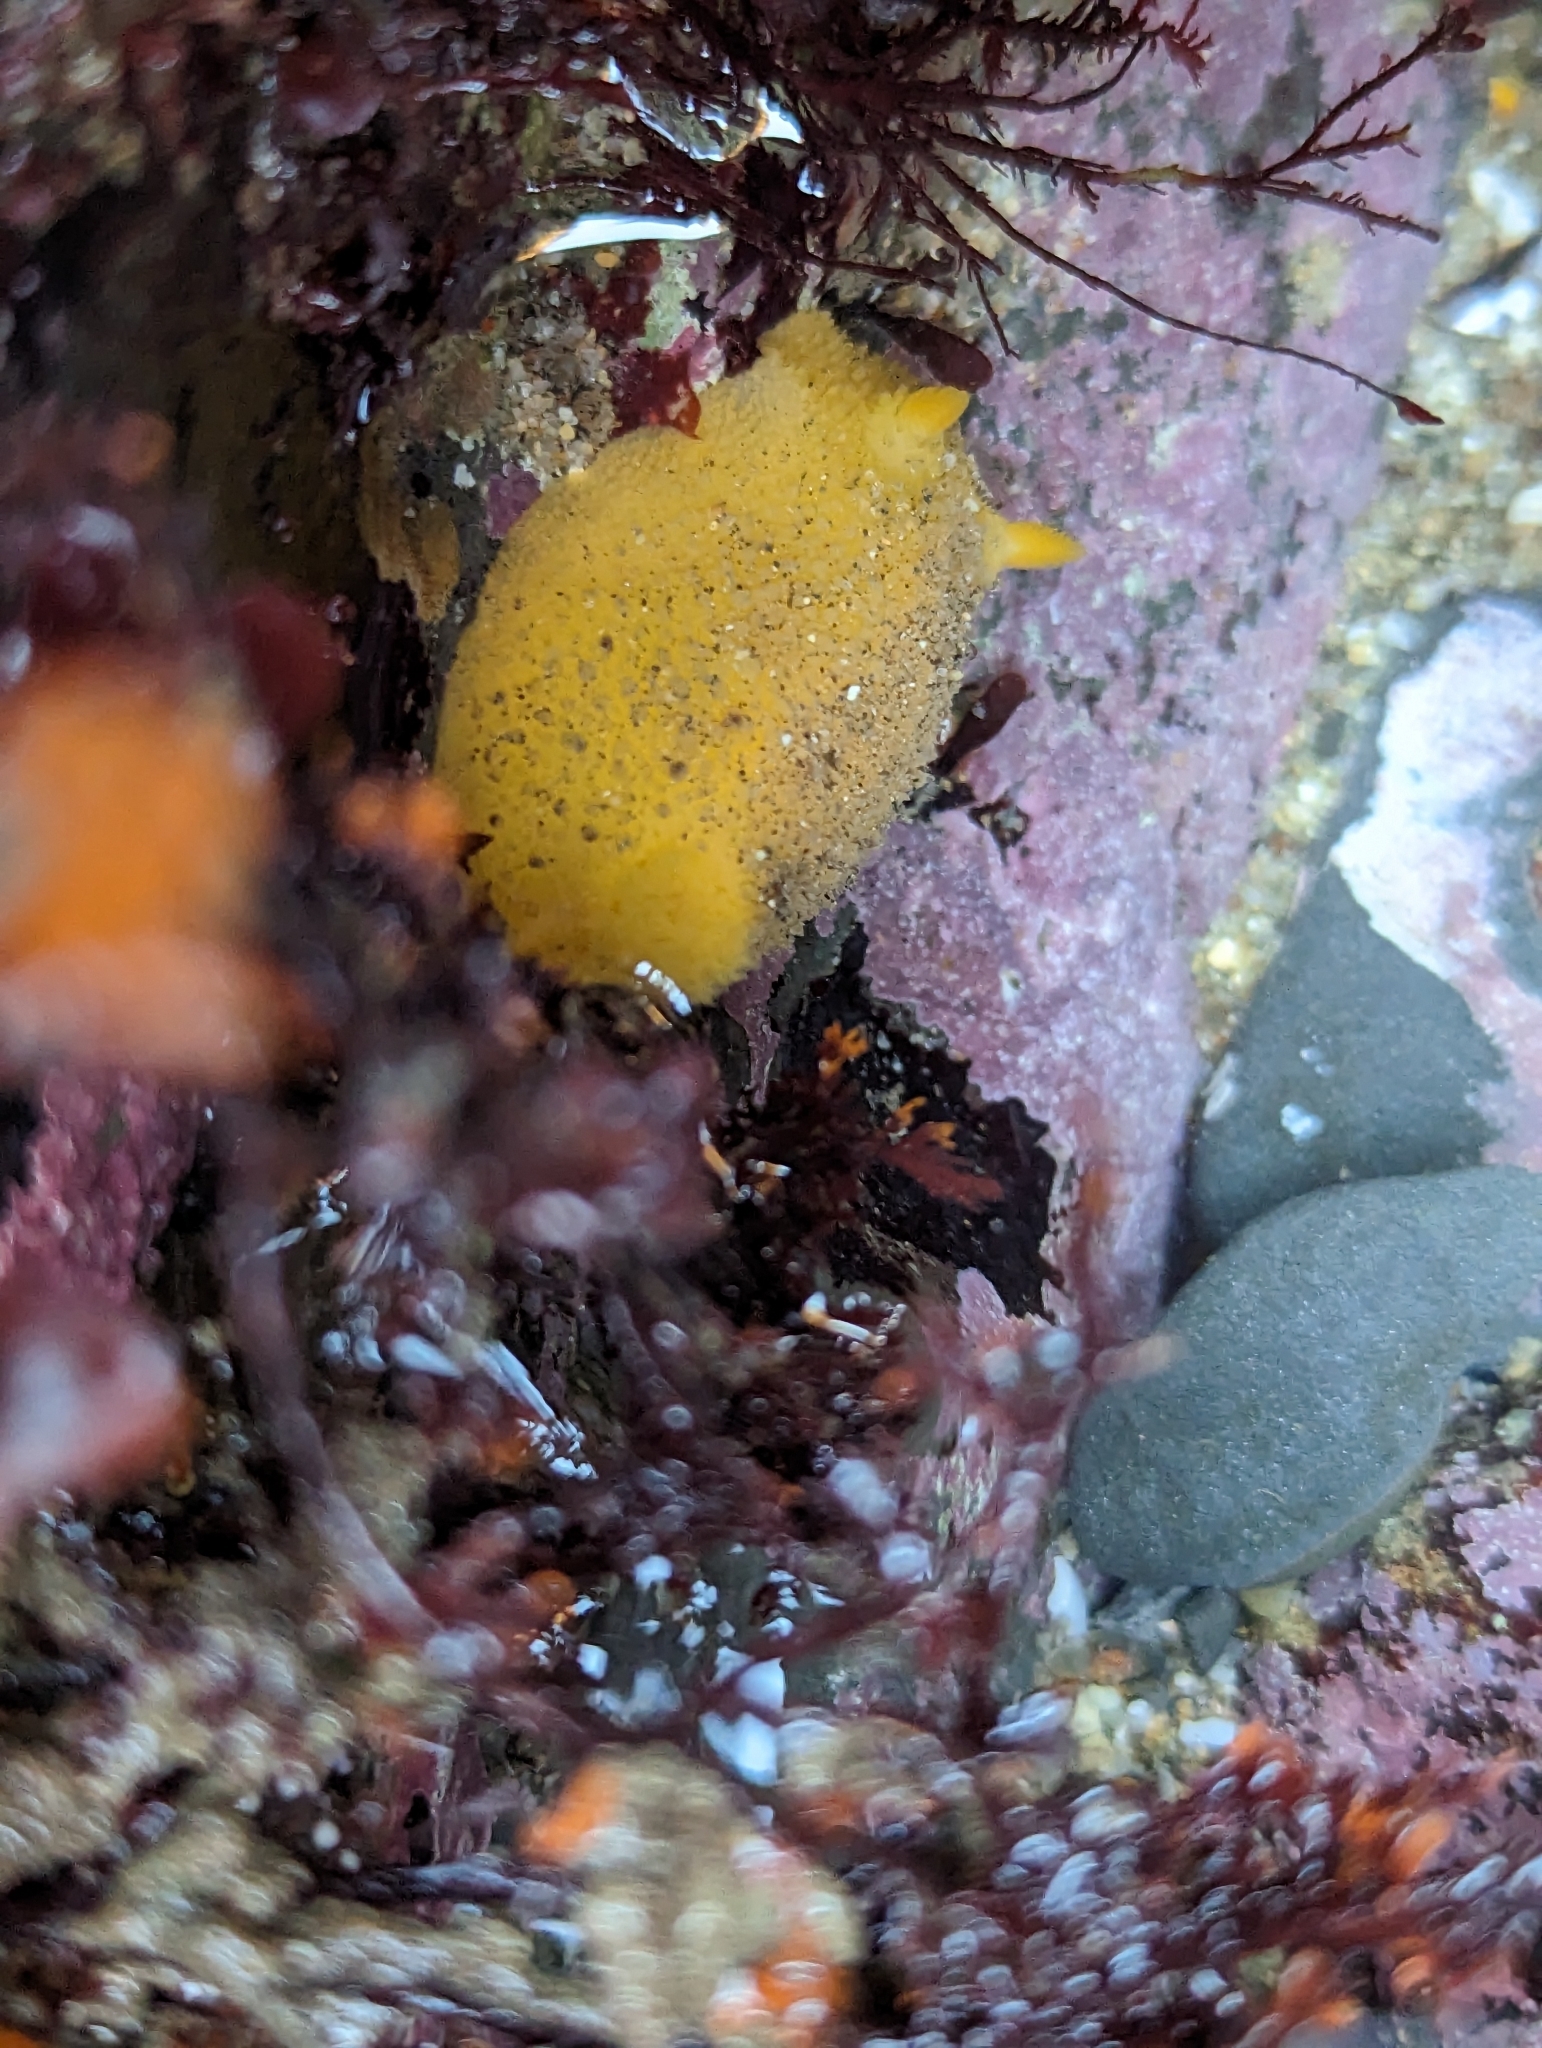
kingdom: Animalia
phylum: Mollusca
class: Gastropoda
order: Nudibranchia
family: Dorididae
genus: Doris
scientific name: Doris montereyensis
